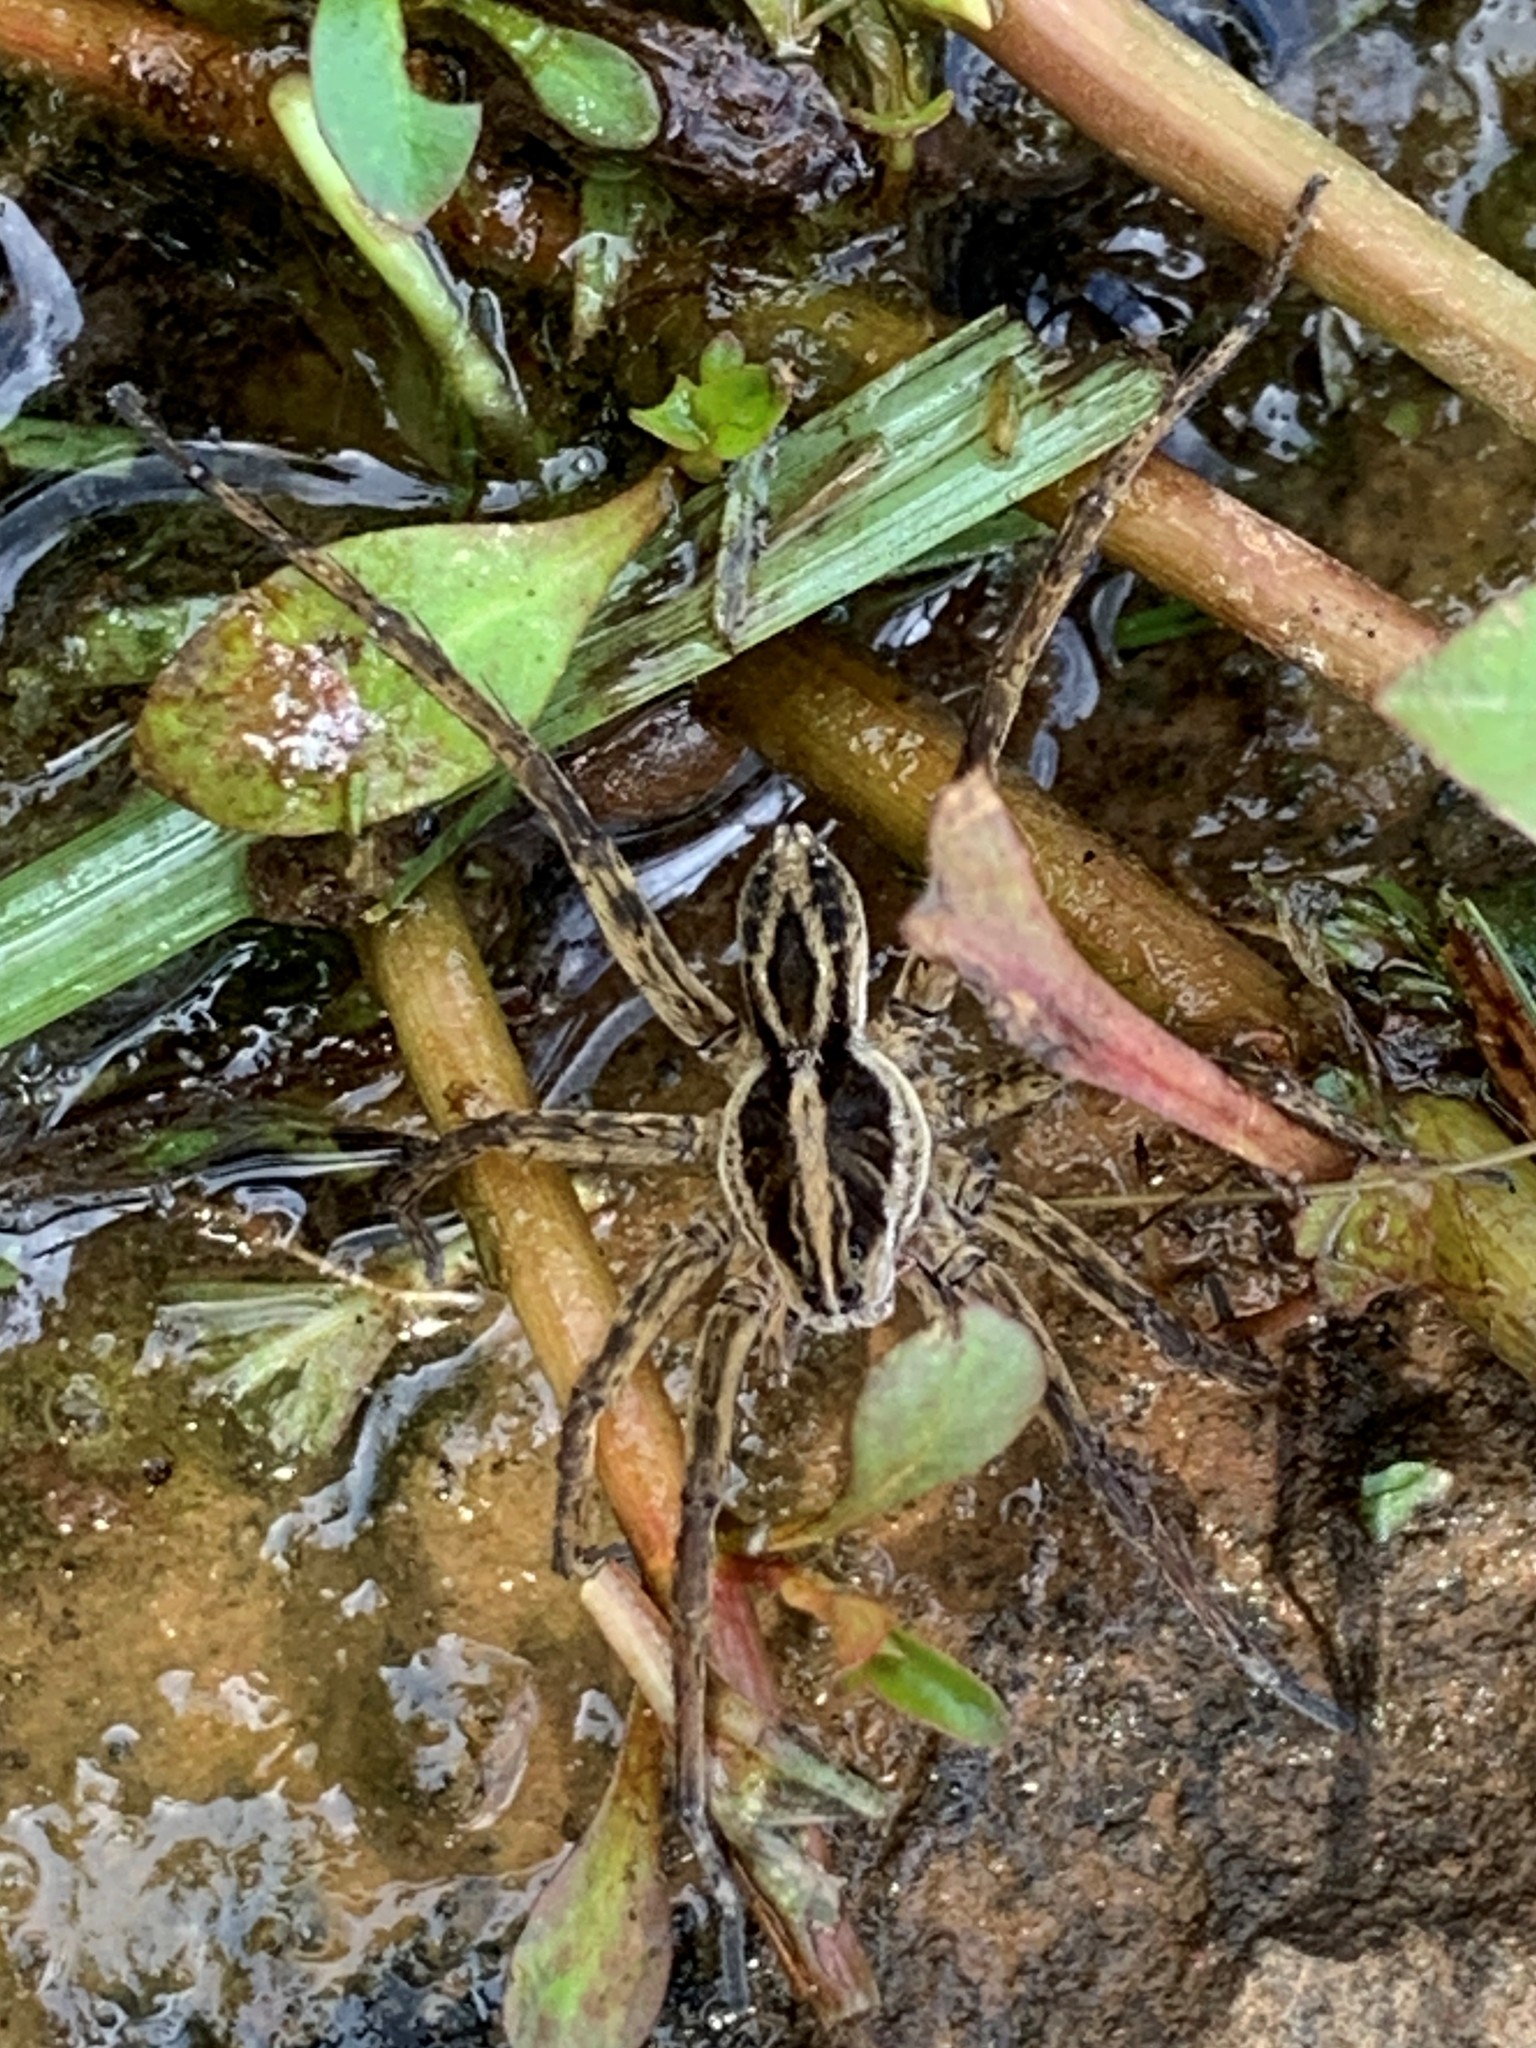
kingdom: Animalia
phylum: Arthropoda
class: Arachnida
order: Araneae
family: Lycosidae
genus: Tigrosa
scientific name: Tigrosa annexa
